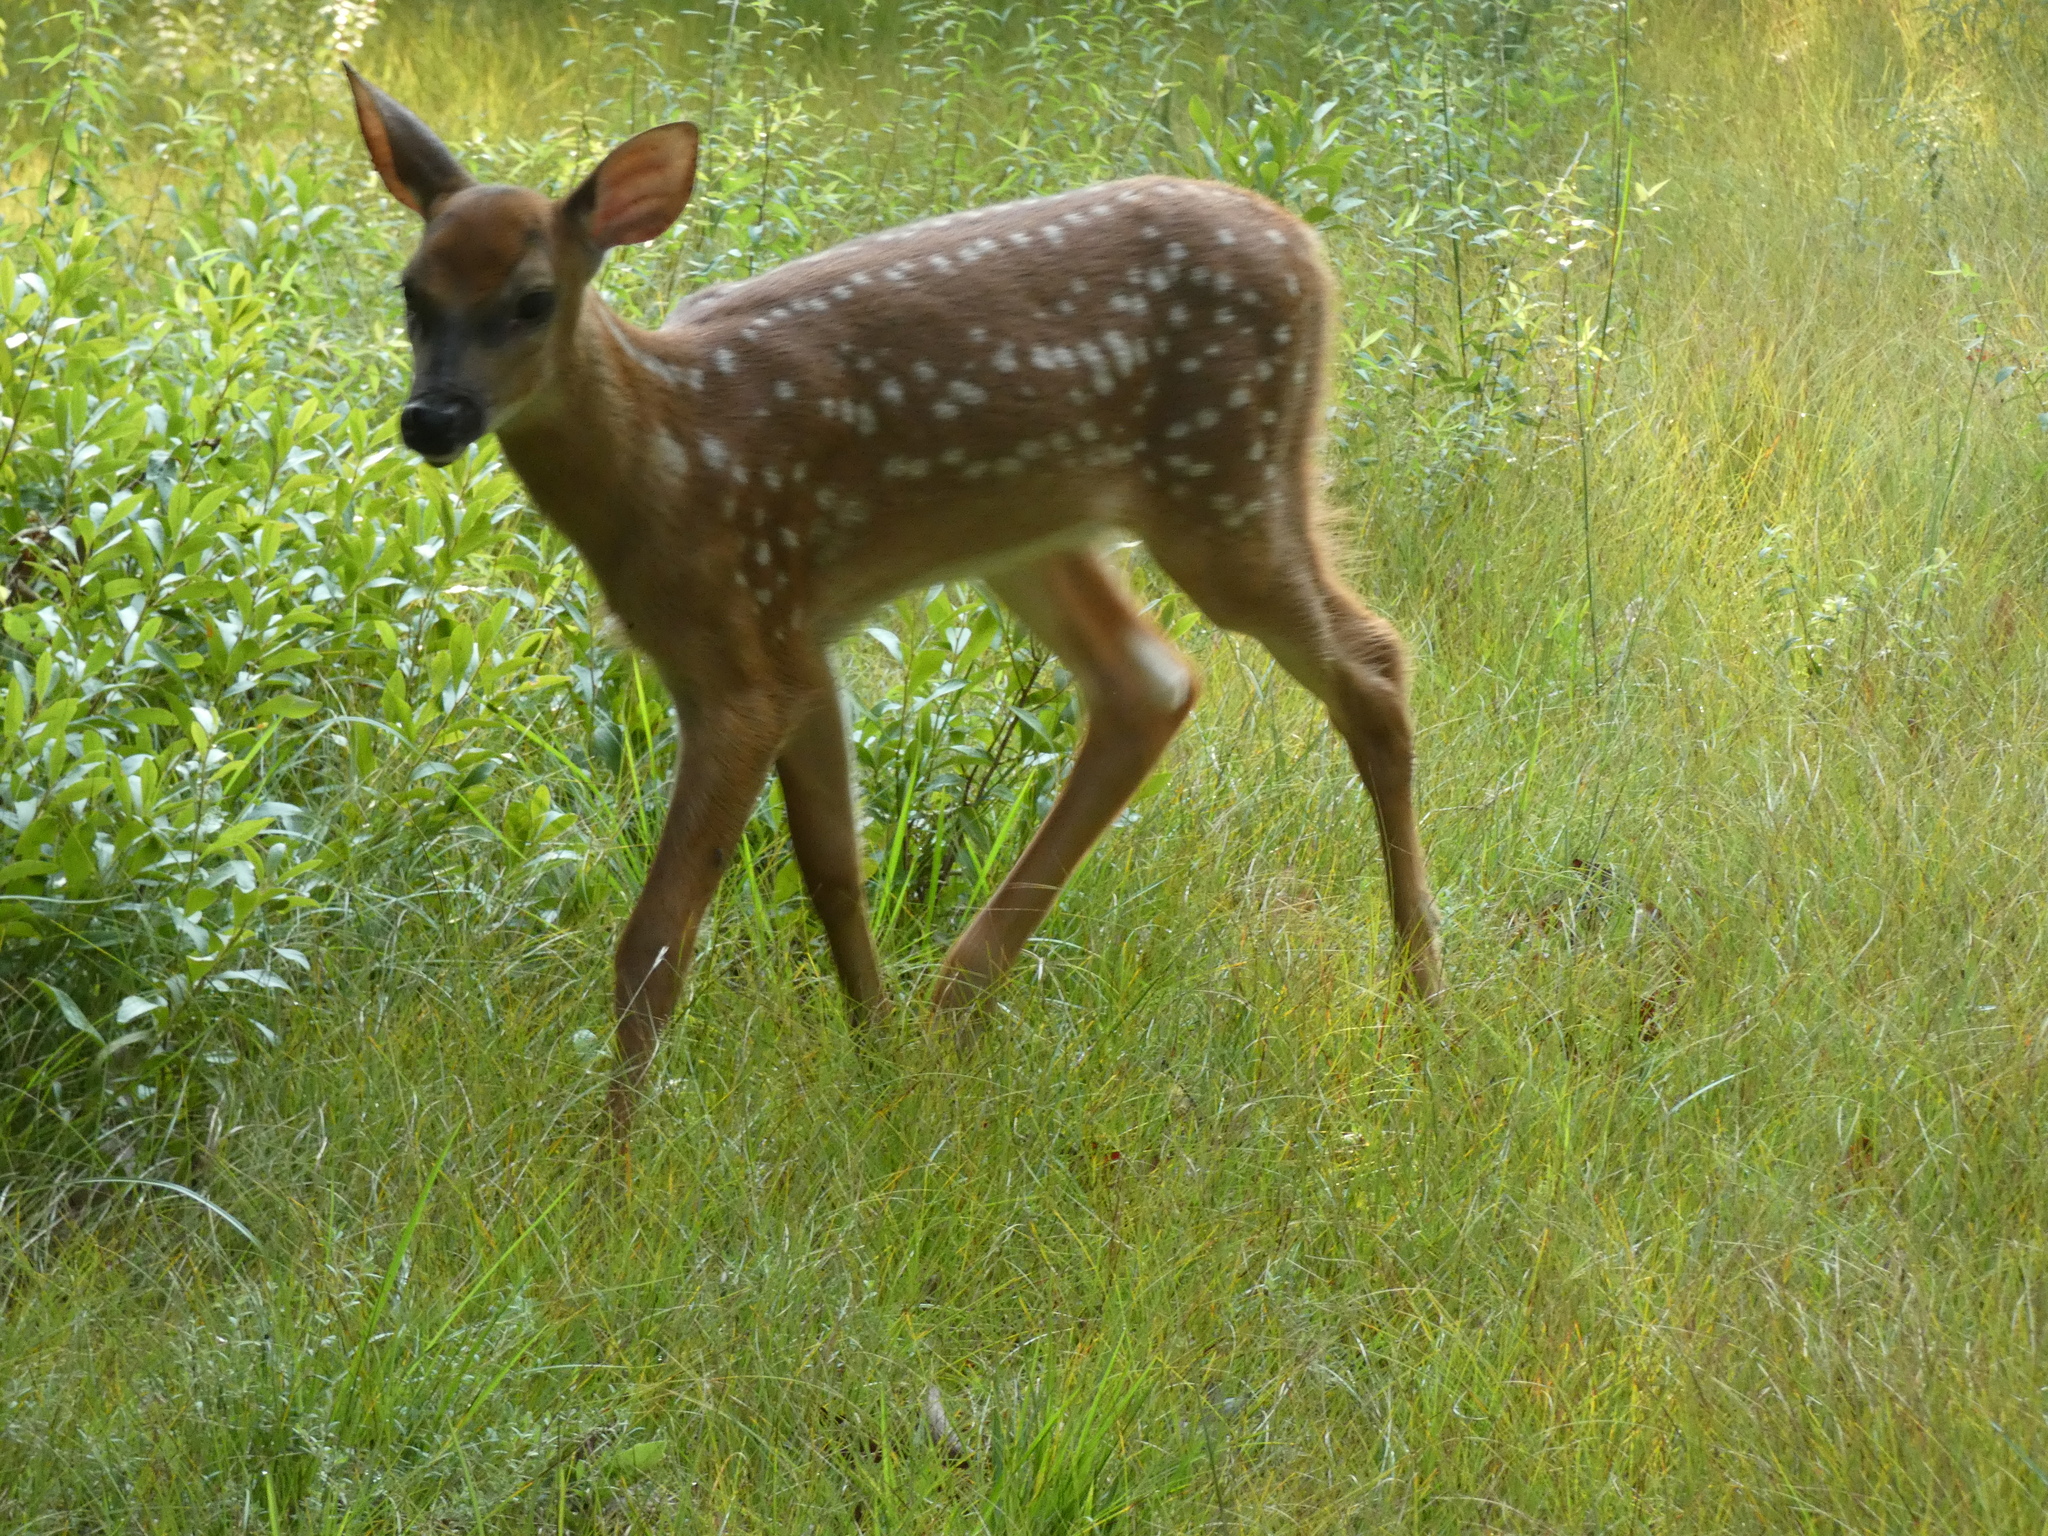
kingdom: Animalia
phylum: Chordata
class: Mammalia
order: Artiodactyla
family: Cervidae
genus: Odocoileus
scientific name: Odocoileus virginianus
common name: White-tailed deer
